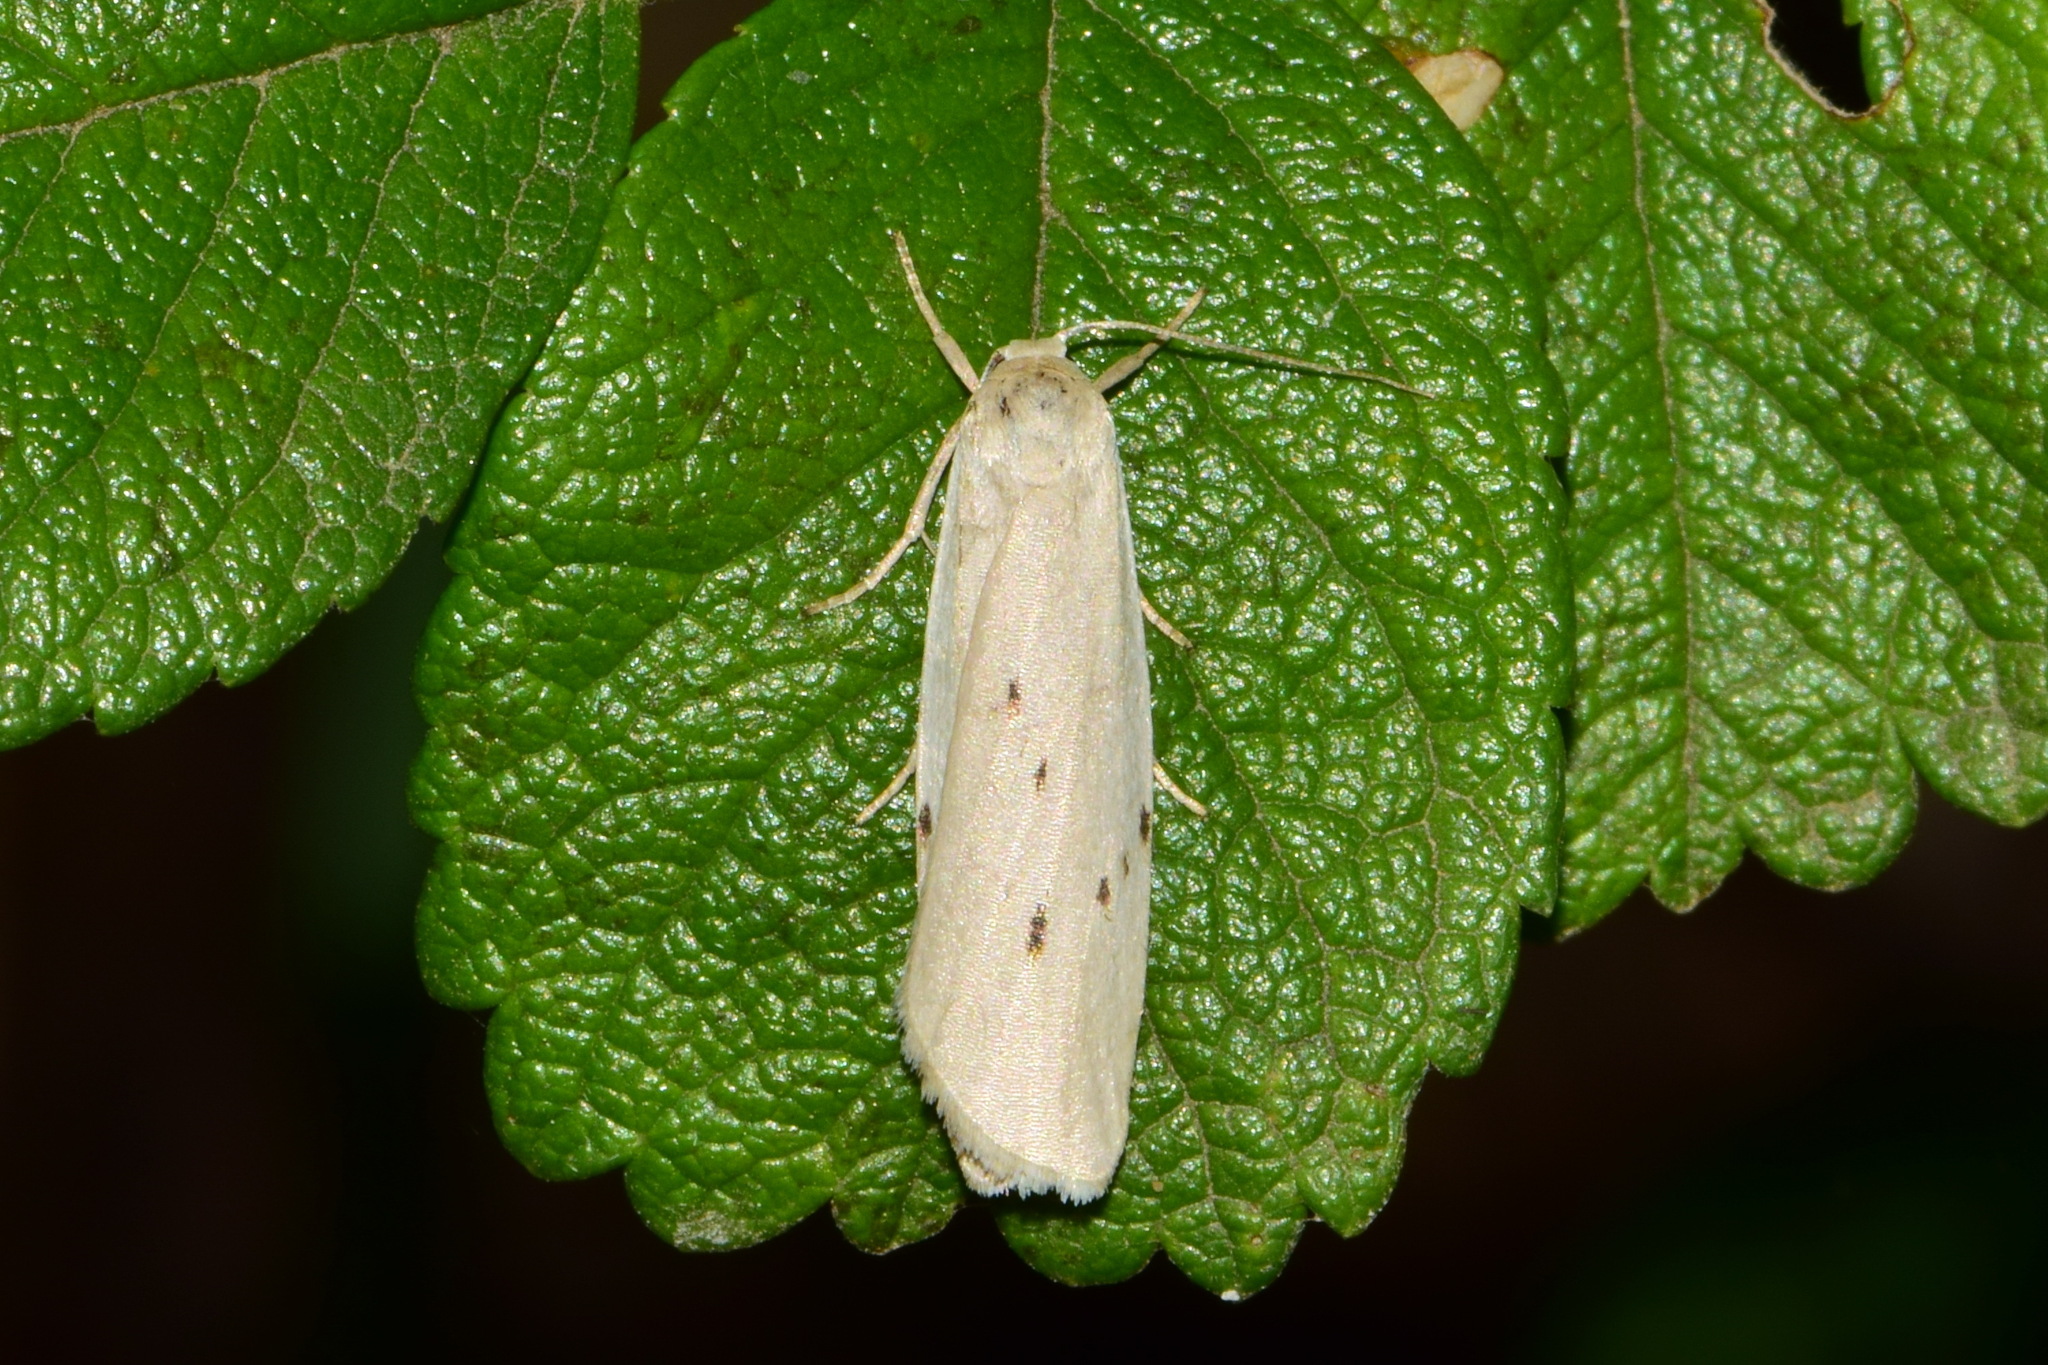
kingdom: Animalia
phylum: Arthropoda
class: Insecta
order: Lepidoptera
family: Erebidae
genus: Pelosia
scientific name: Pelosia muscerda
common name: Dotted footman
